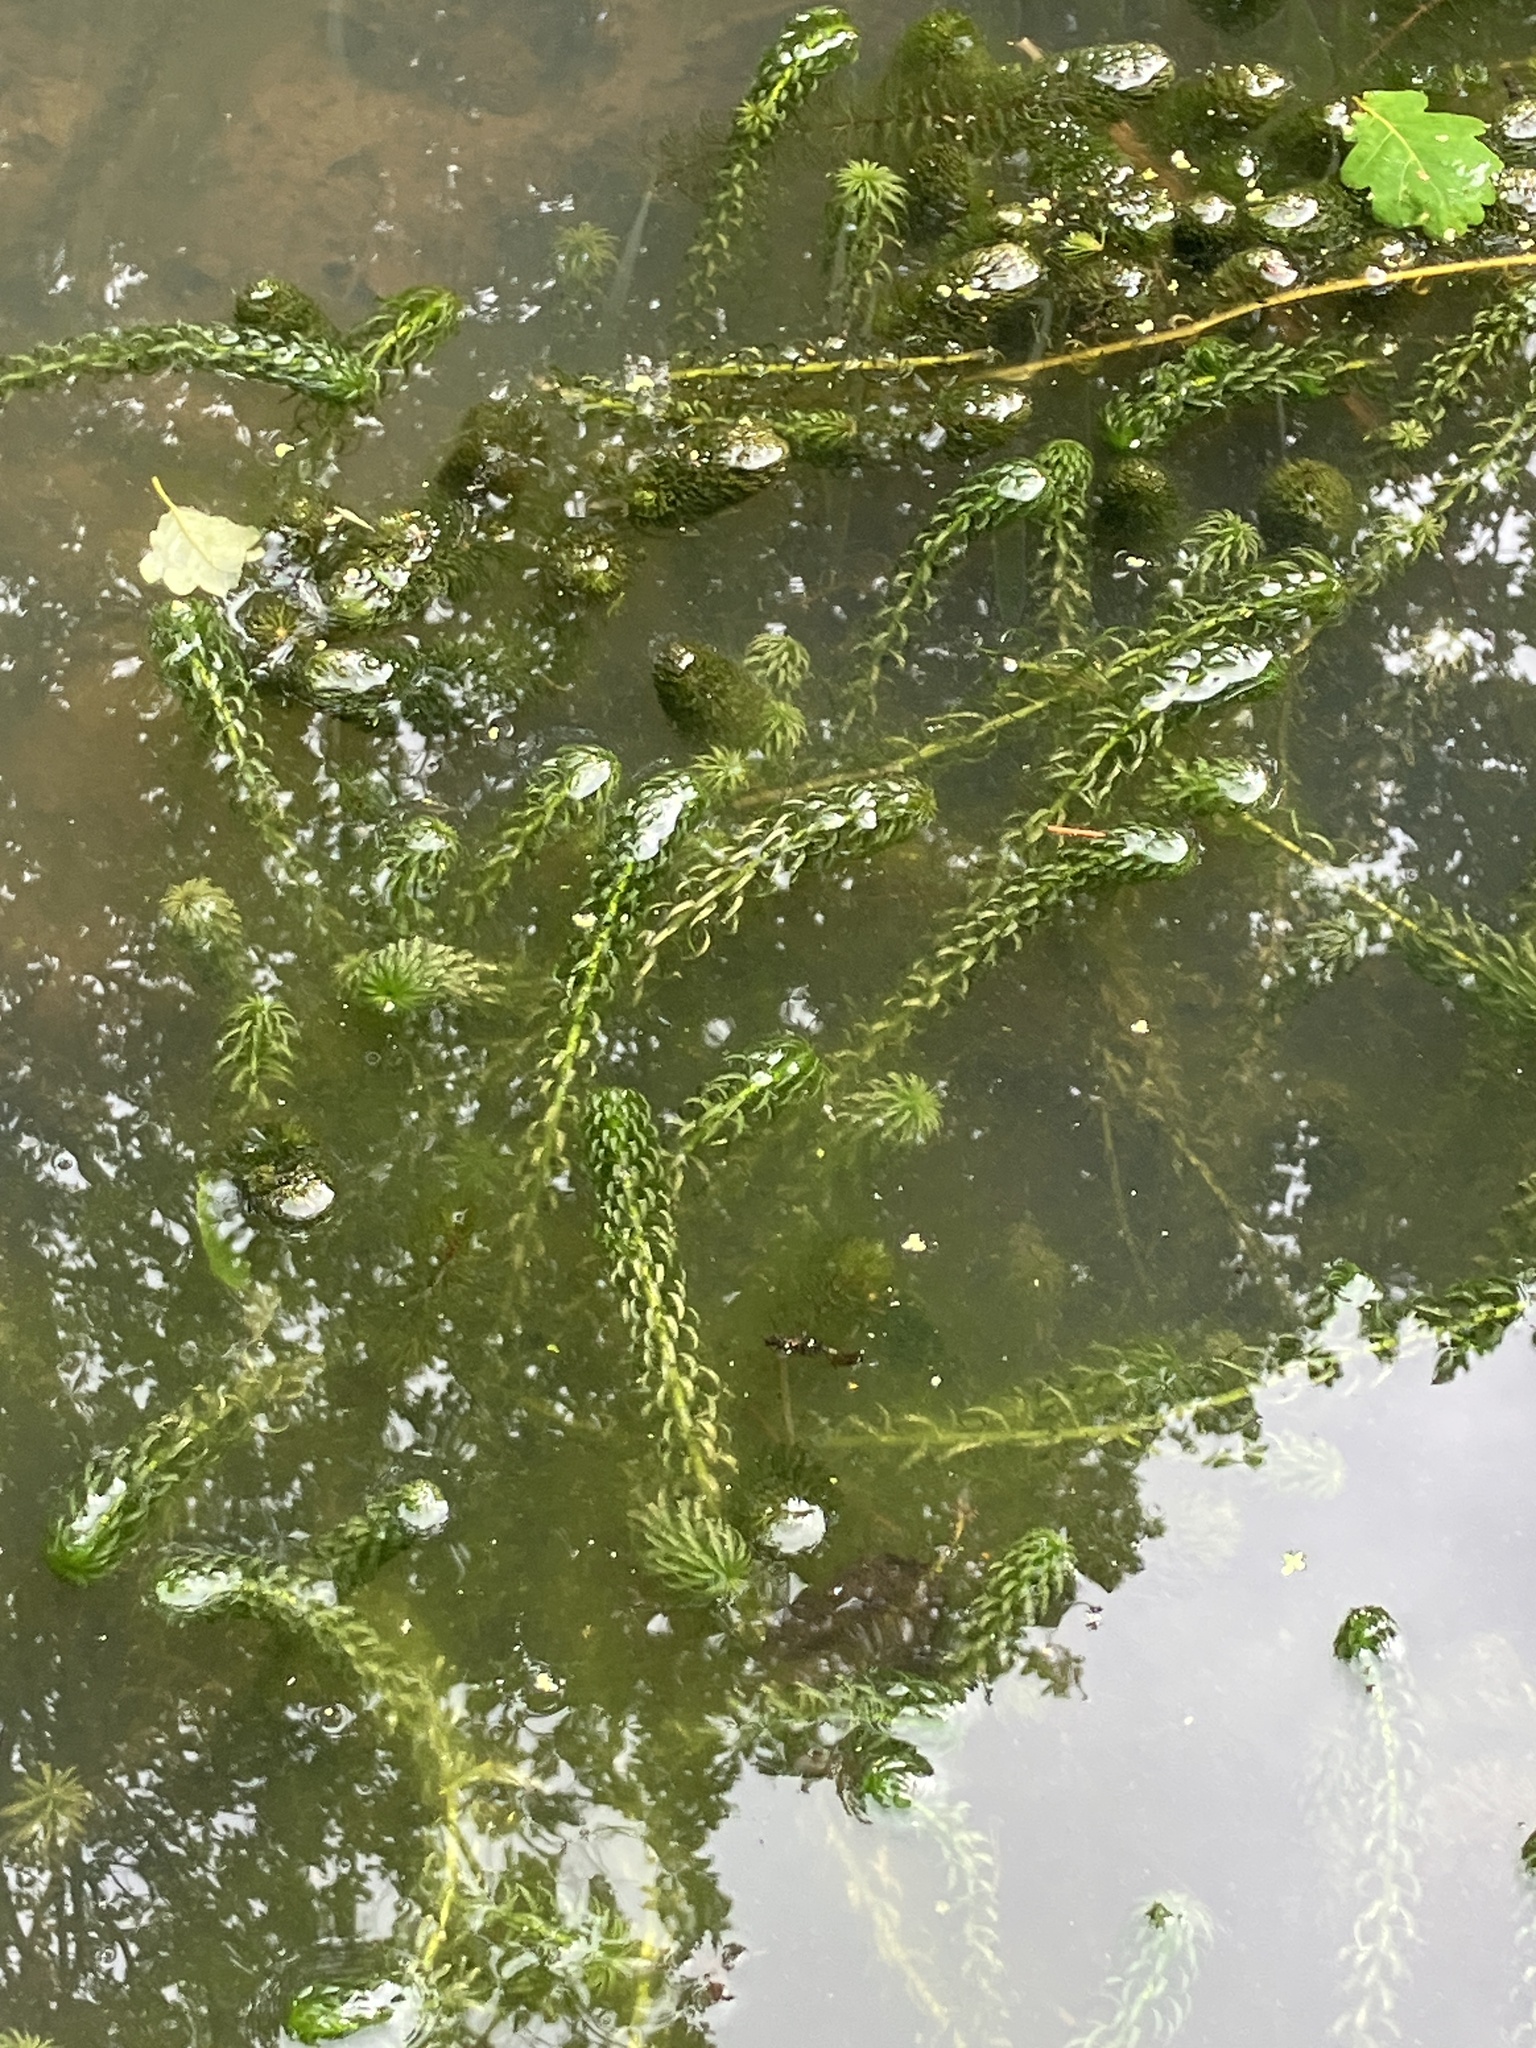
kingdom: Plantae
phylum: Tracheophyta
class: Liliopsida
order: Alismatales
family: Hydrocharitaceae
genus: Lagarosiphon
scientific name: Lagarosiphon major
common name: Curly waterweed
